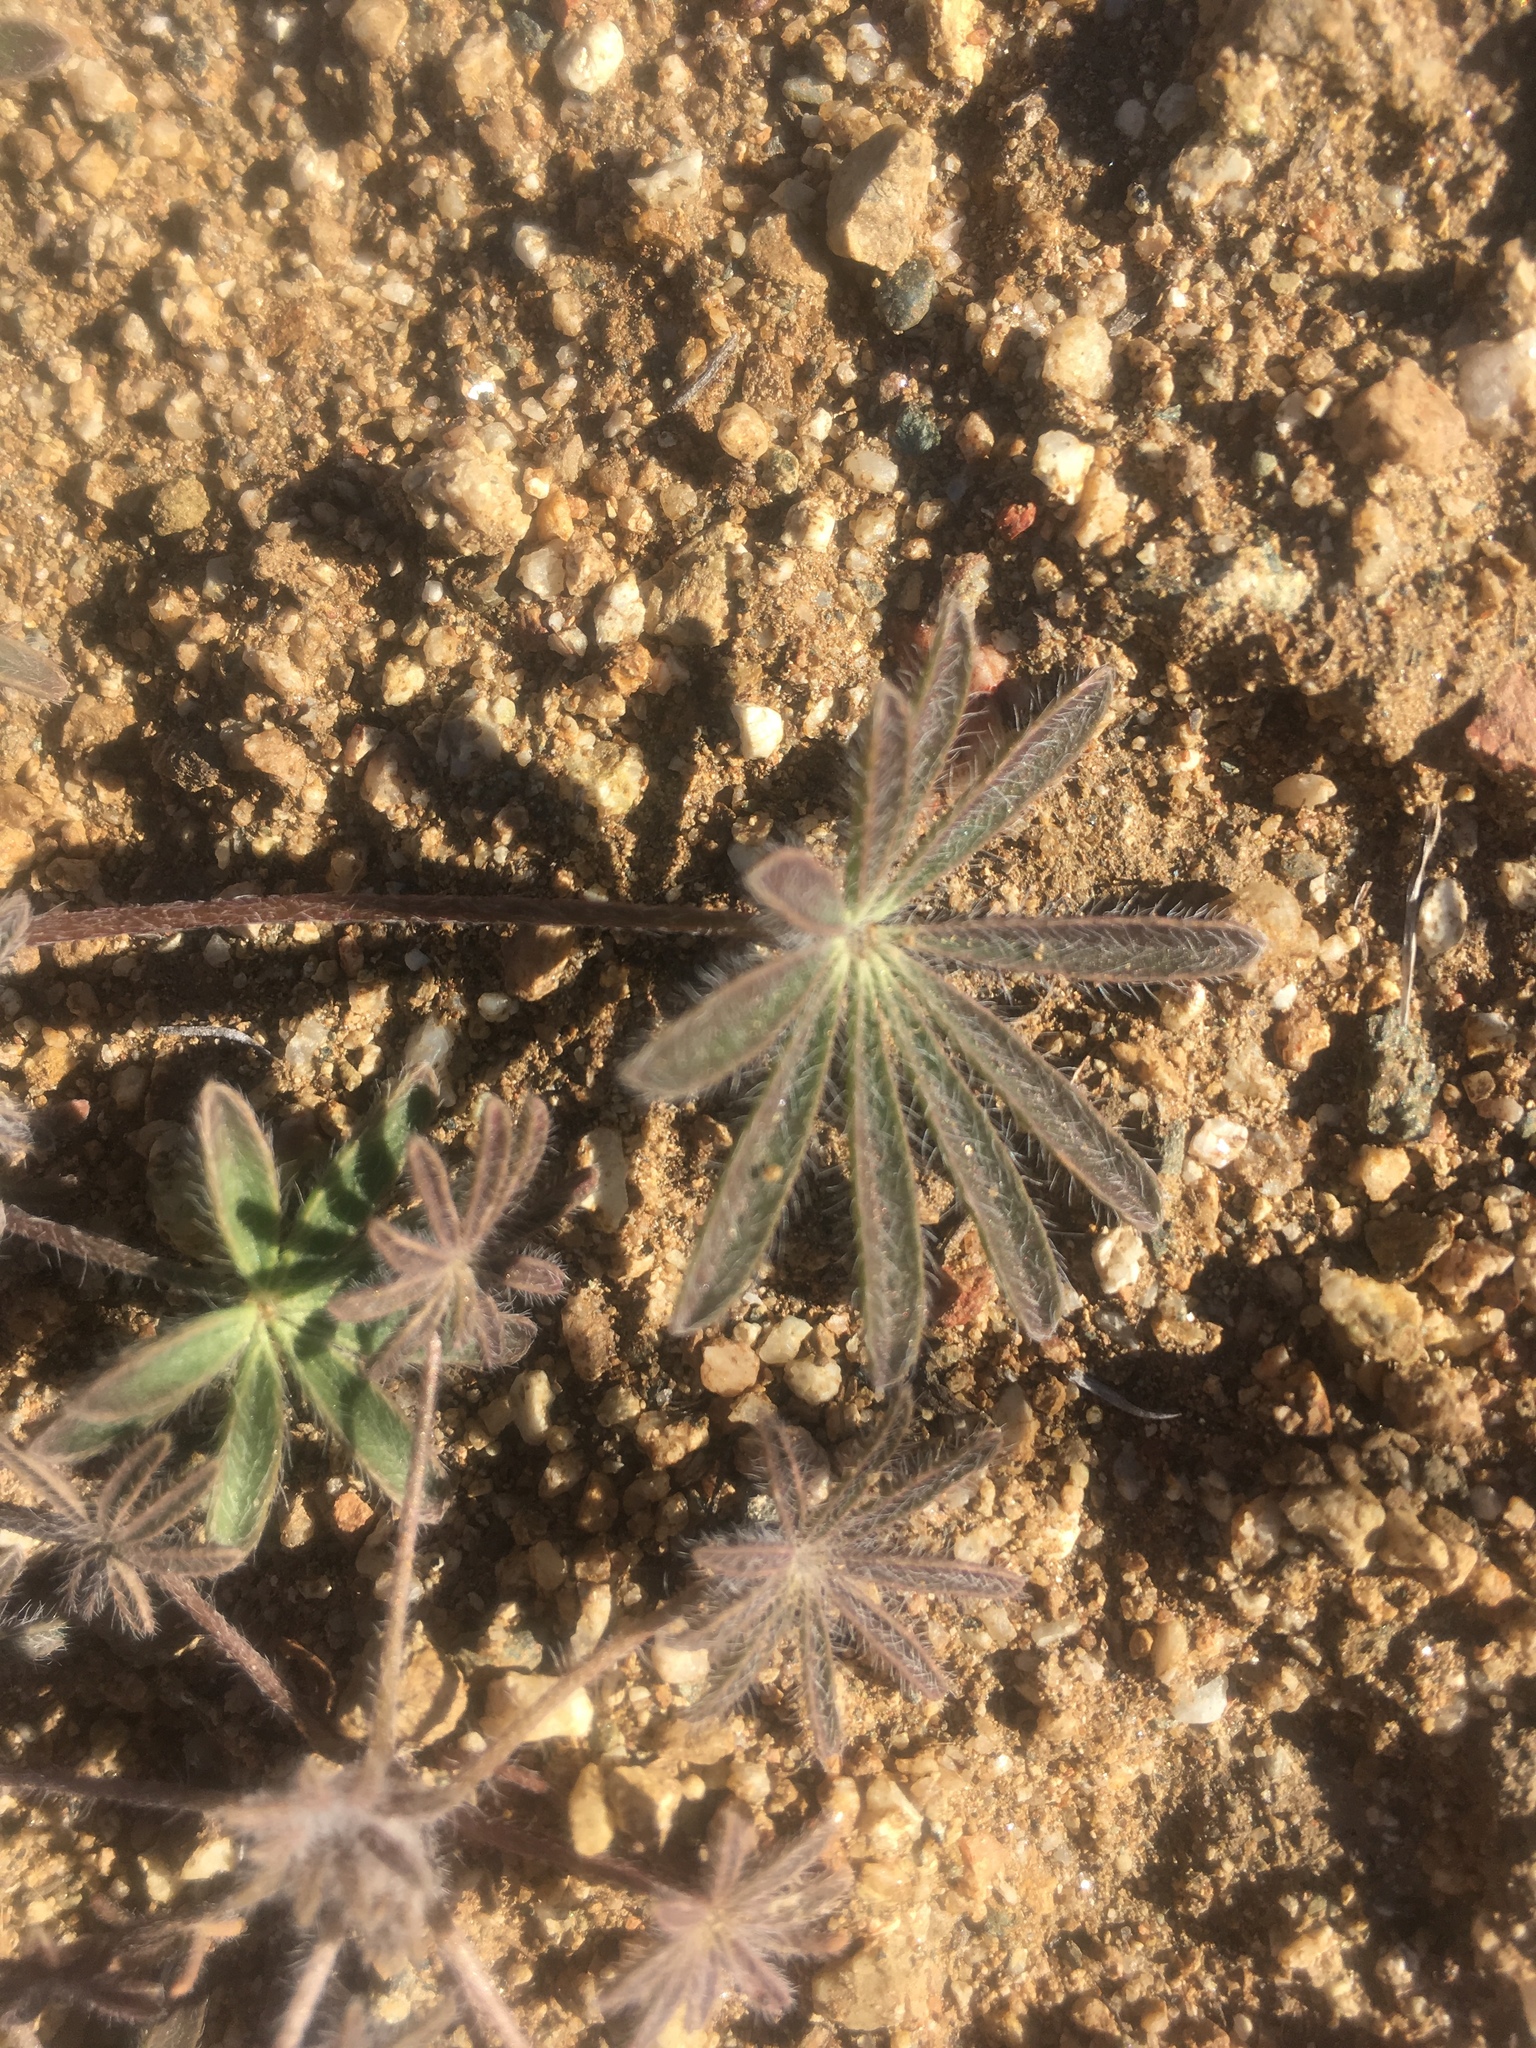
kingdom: Plantae
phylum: Tracheophyta
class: Magnoliopsida
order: Fabales
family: Fabaceae
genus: Lupinus
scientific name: Lupinus bicolor
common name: Miniature lupine
